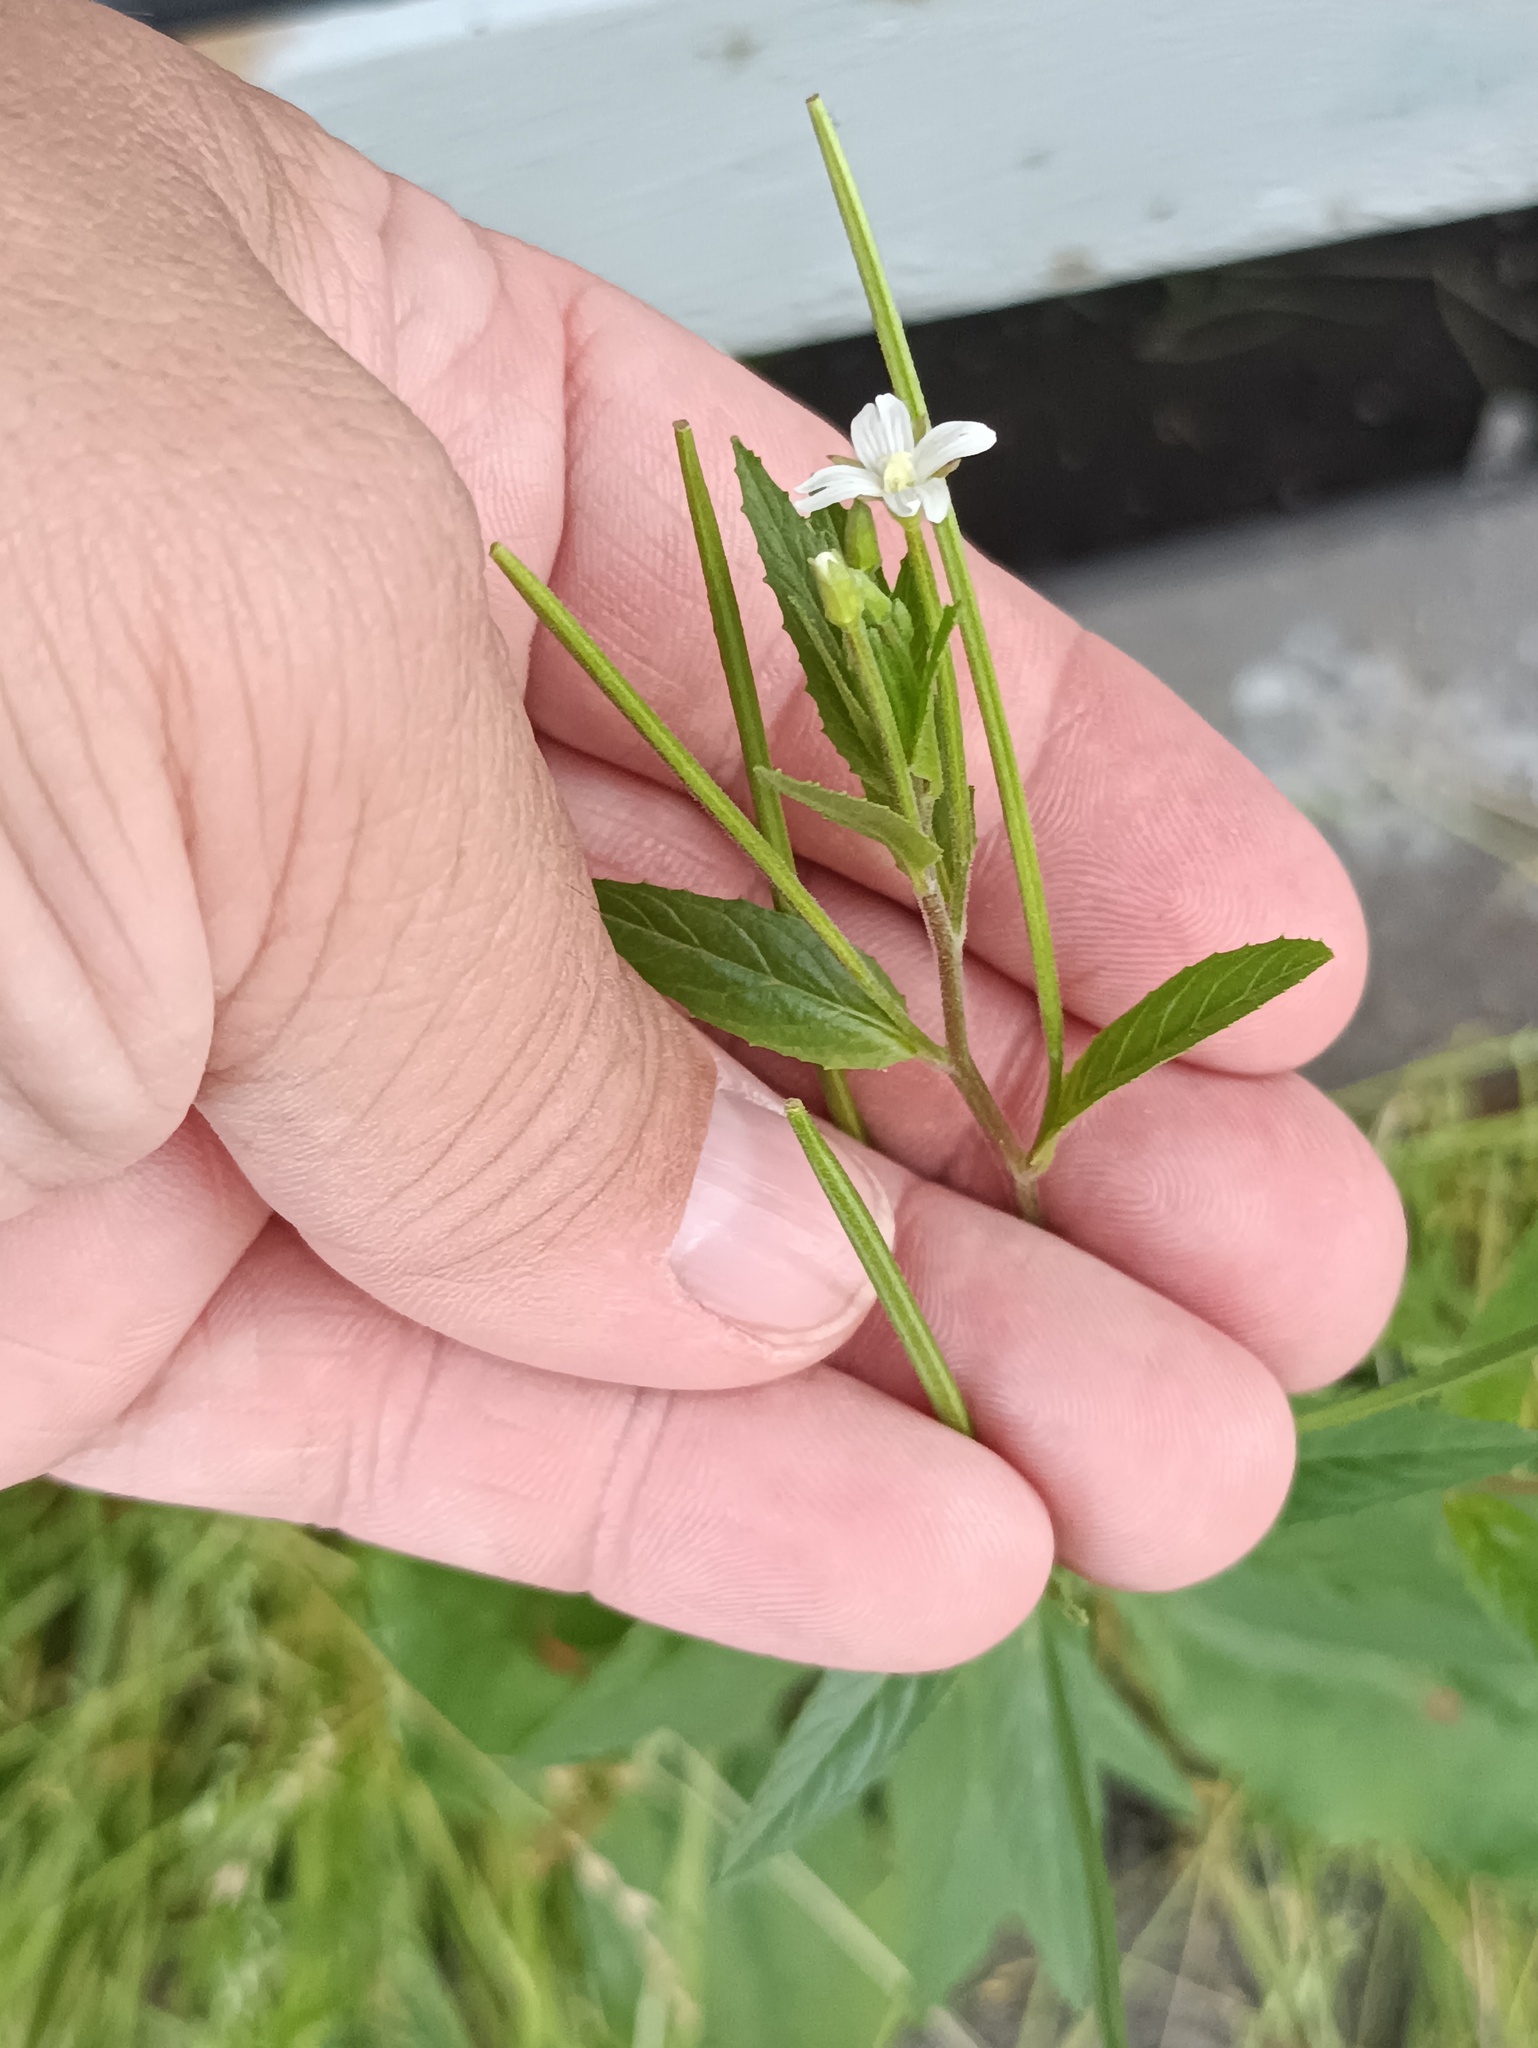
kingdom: Plantae
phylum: Tracheophyta
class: Magnoliopsida
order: Myrtales
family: Onagraceae
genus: Epilobium
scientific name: Epilobium pseudorubescens
